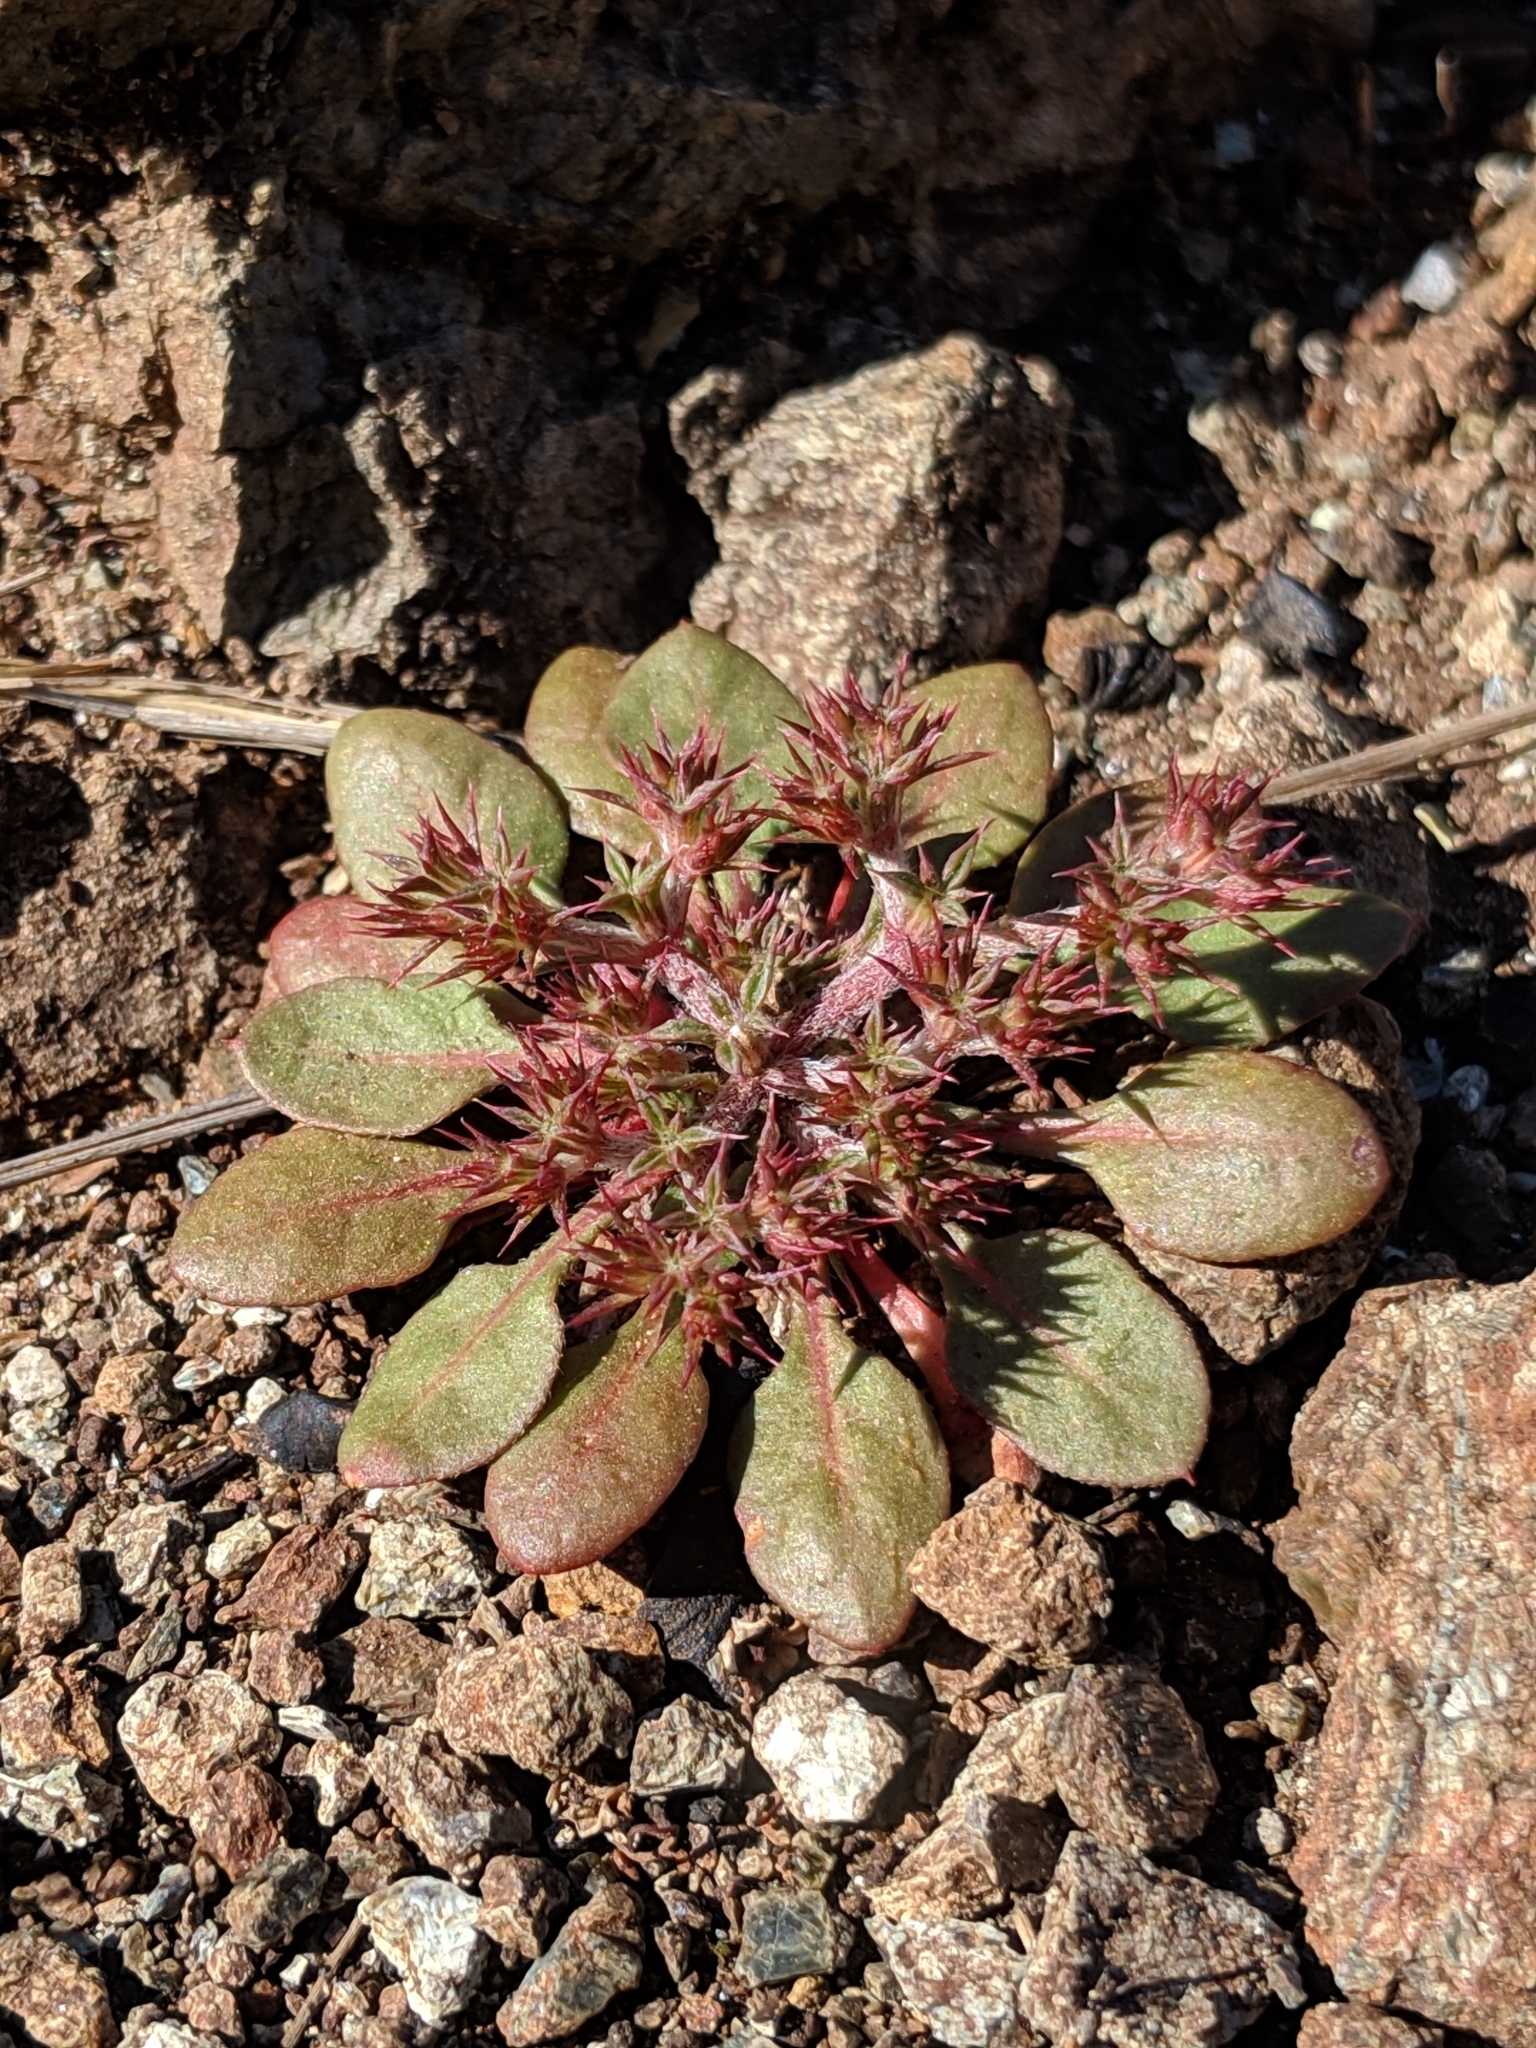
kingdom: Plantae
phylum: Tracheophyta
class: Magnoliopsida
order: Caryophyllales
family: Polygonaceae
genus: Chorizanthe
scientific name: Chorizanthe aphanantha
